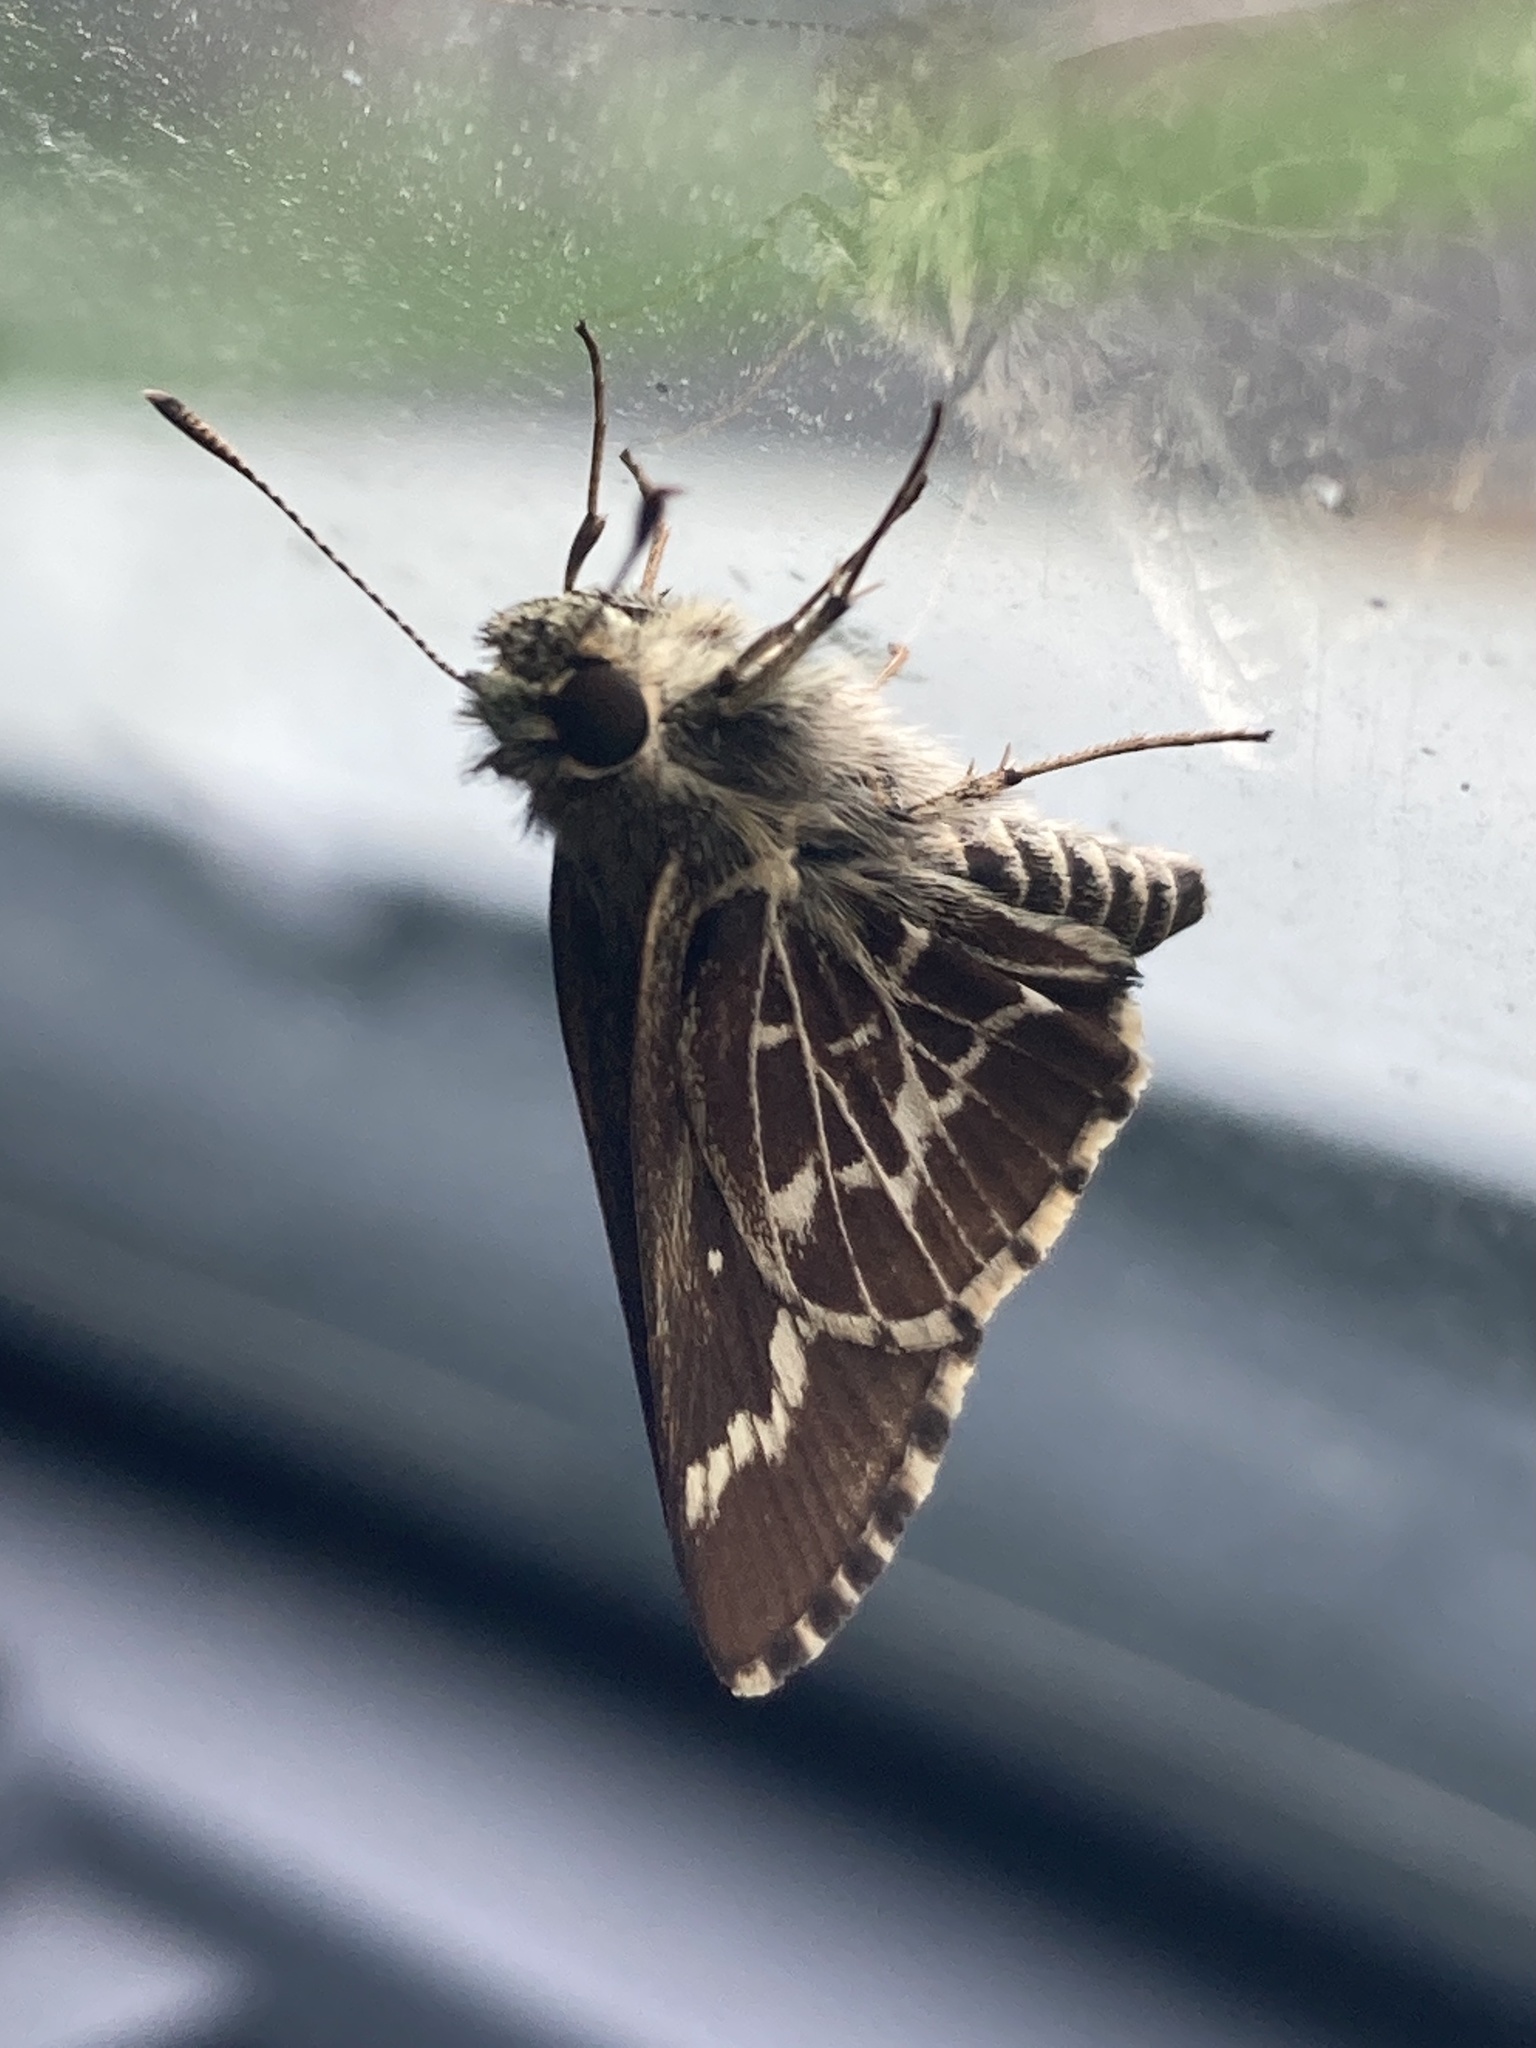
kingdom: Animalia
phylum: Arthropoda
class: Insecta
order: Lepidoptera
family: Hesperiidae
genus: Mastor
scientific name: Mastor aesculapius
